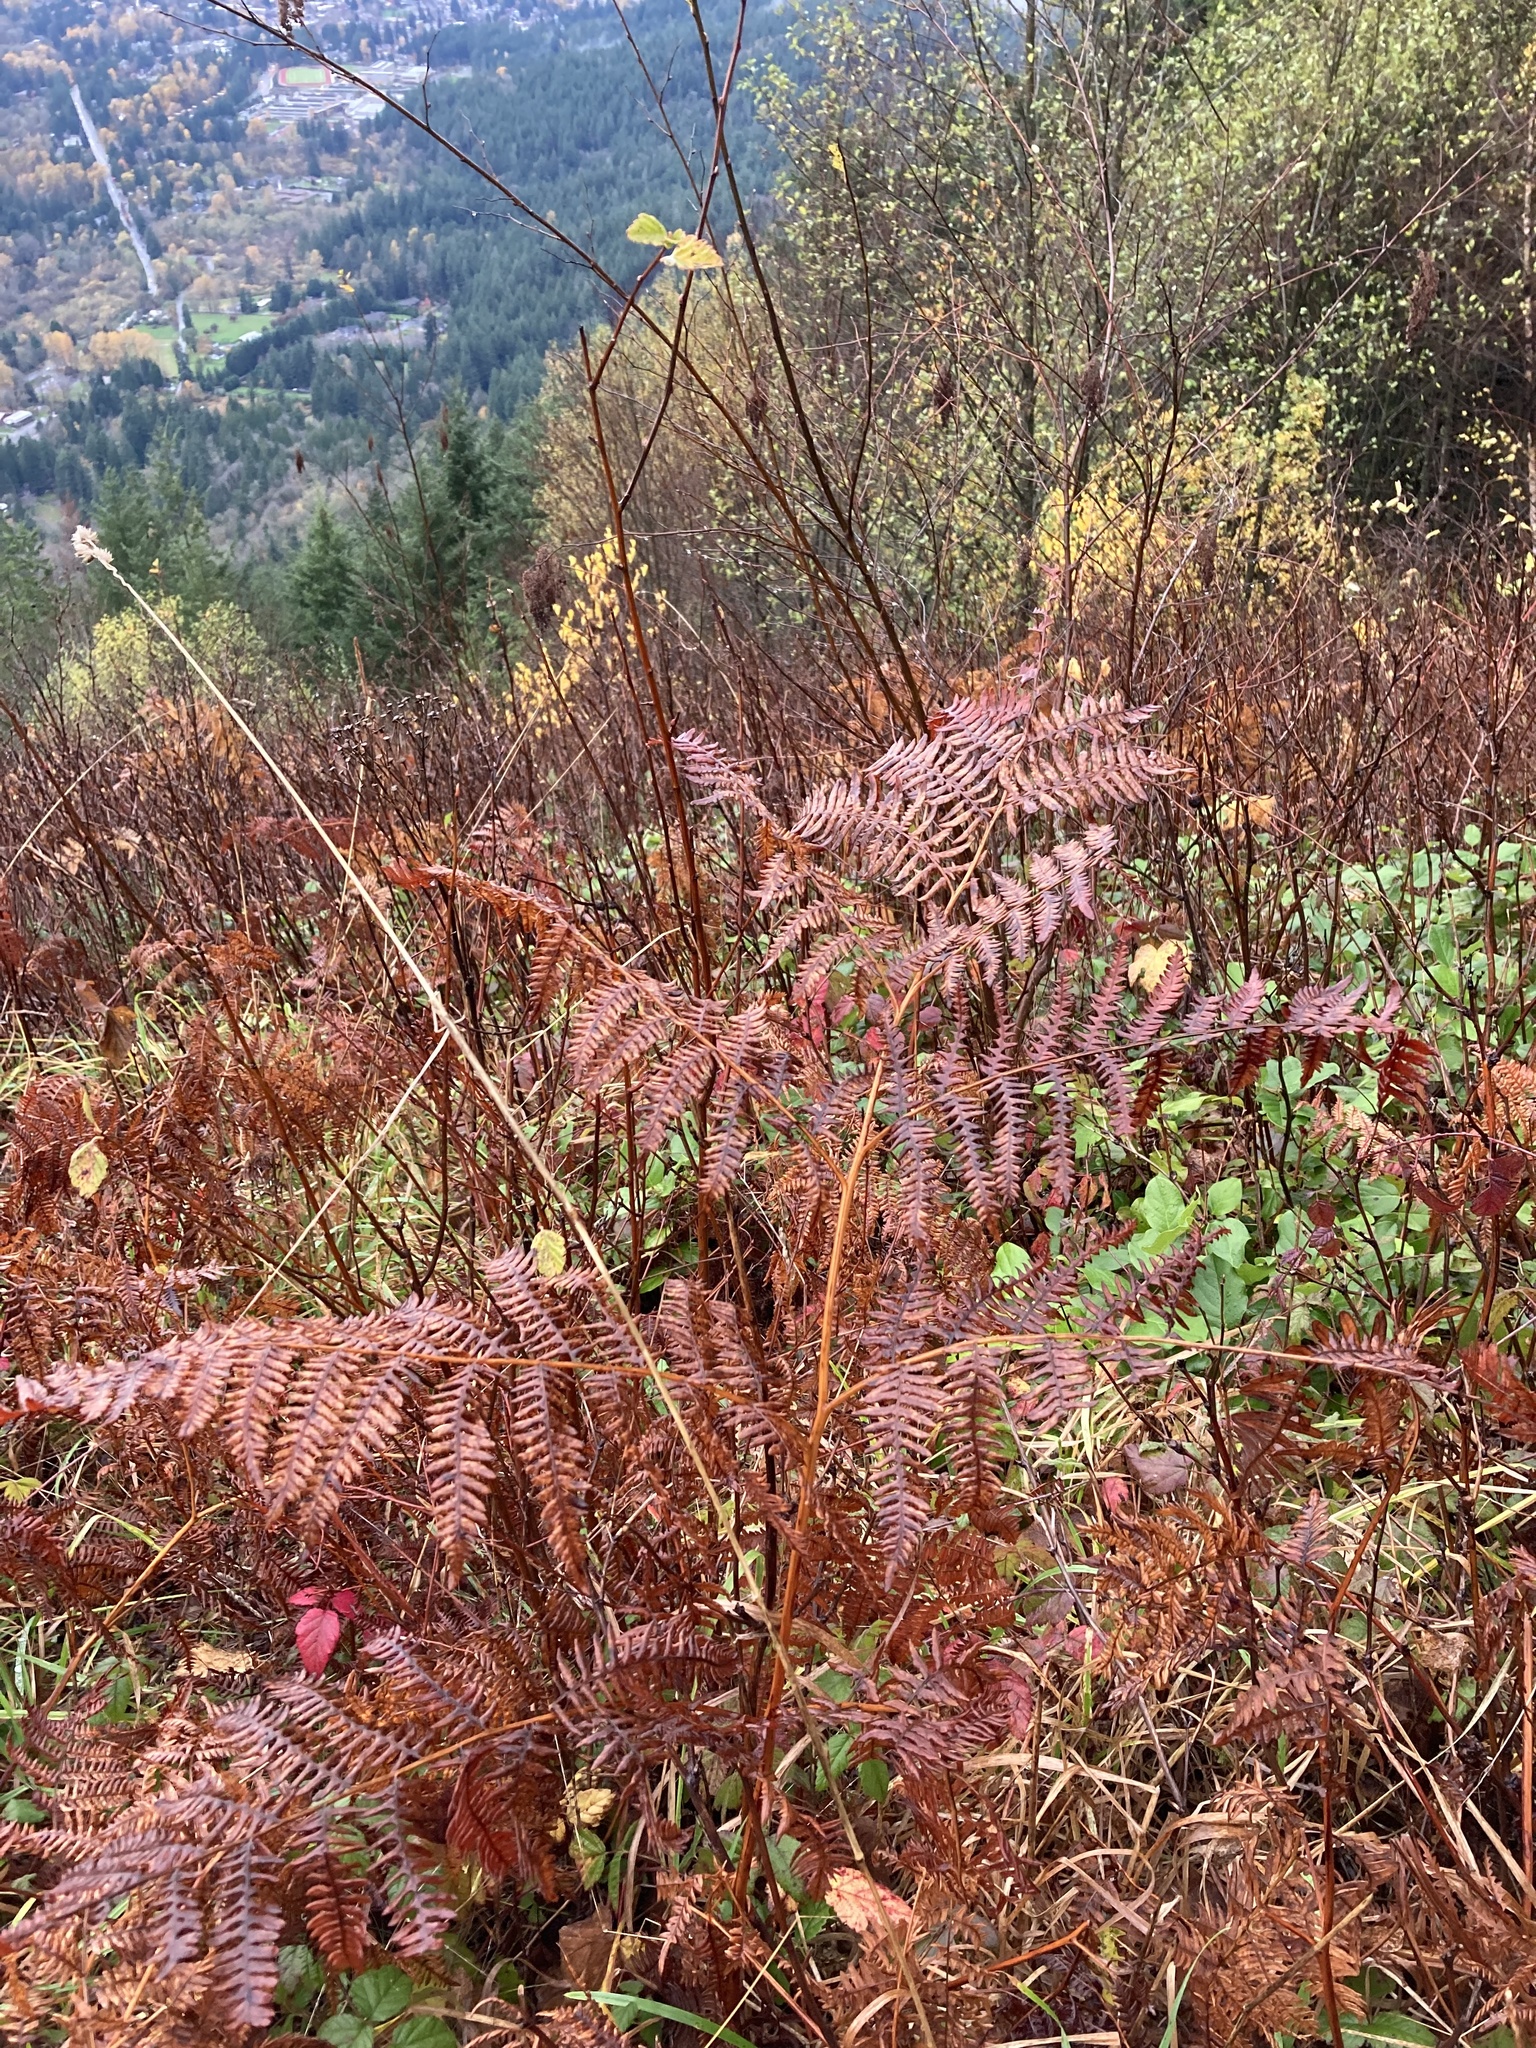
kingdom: Plantae
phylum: Tracheophyta
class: Polypodiopsida
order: Polypodiales
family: Dennstaedtiaceae
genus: Pteridium
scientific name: Pteridium aquilinum
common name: Bracken
